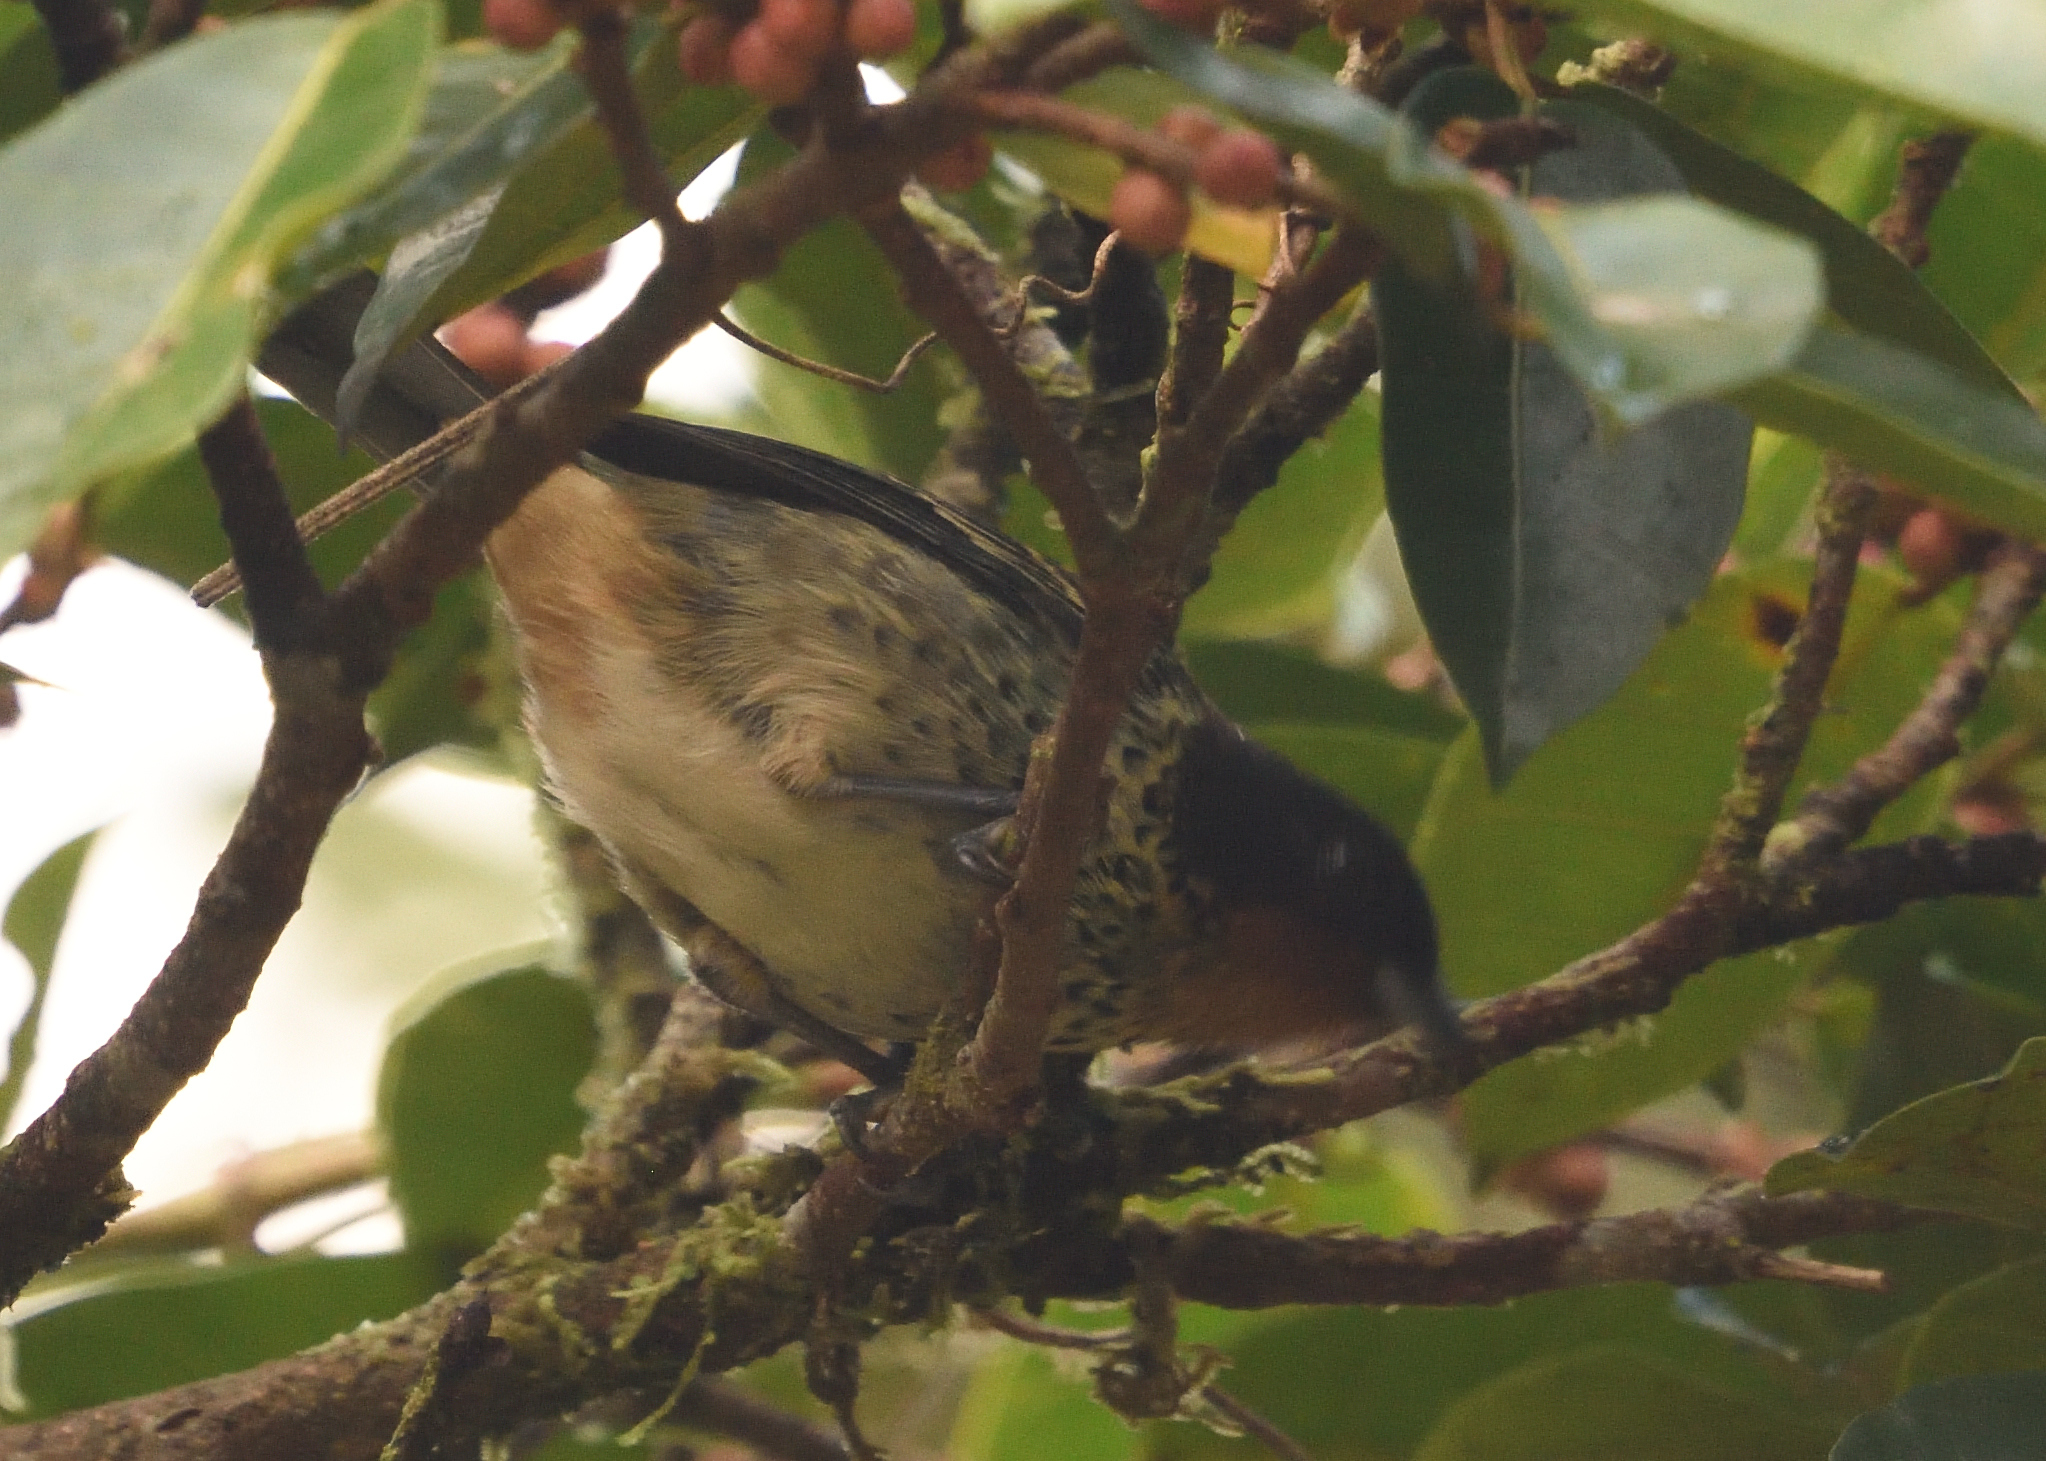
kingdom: Animalia
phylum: Chordata
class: Aves
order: Passeriformes
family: Thraupidae
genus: Ixothraupis
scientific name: Ixothraupis rufigula
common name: Rufous-throated tanager
